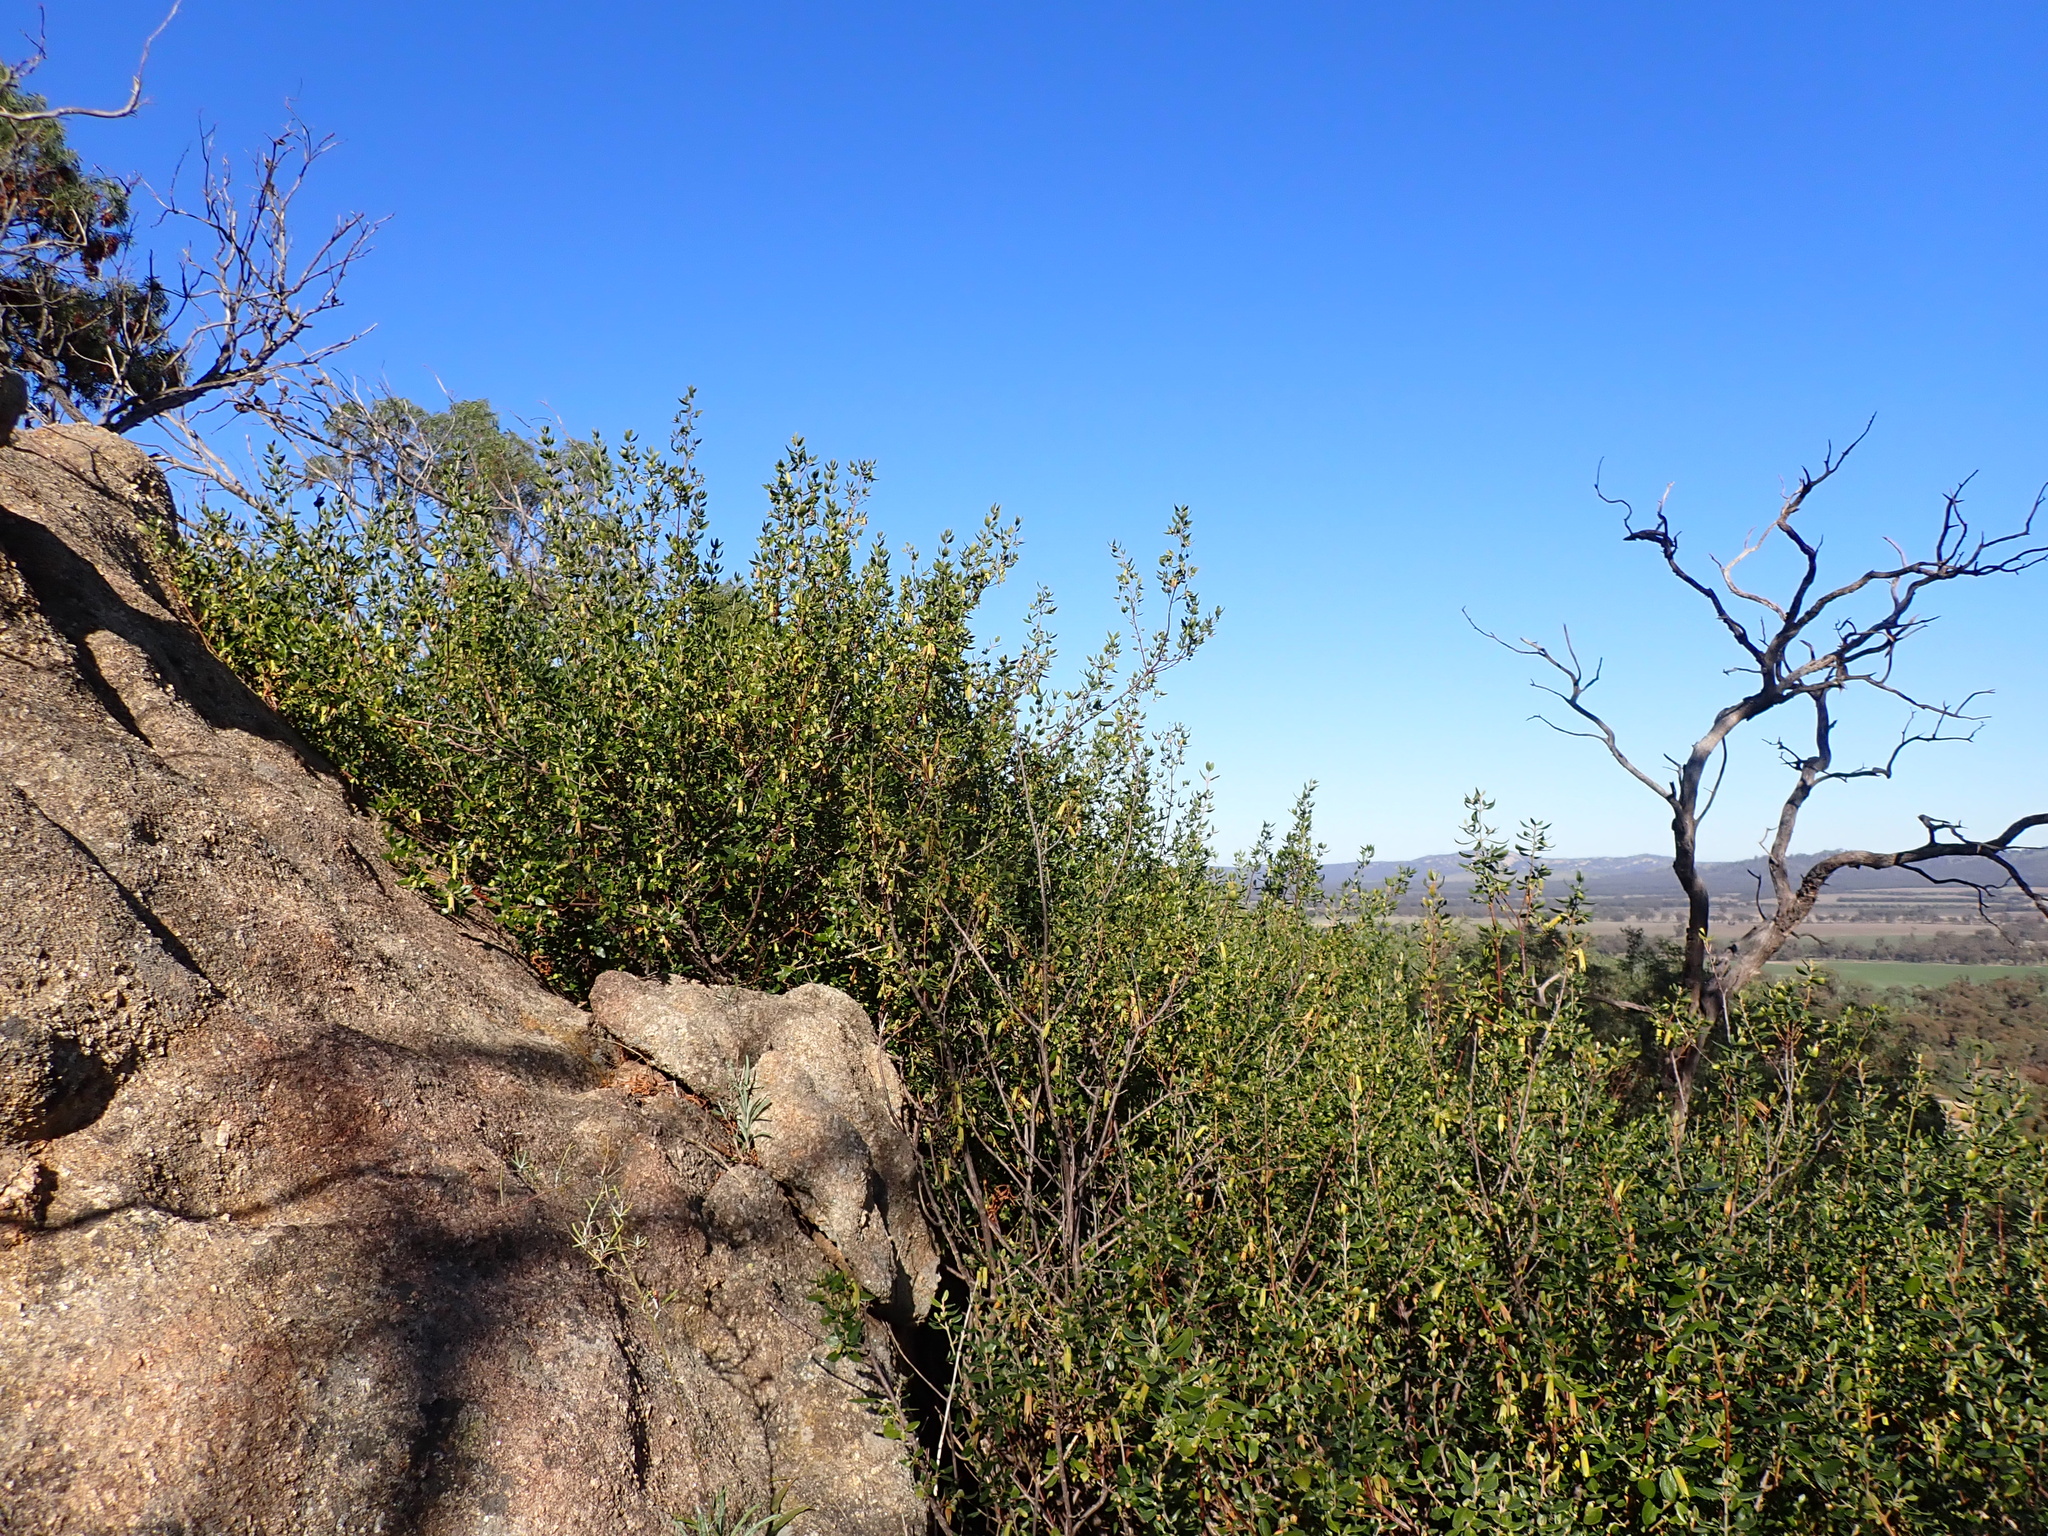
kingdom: Plantae
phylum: Tracheophyta
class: Magnoliopsida
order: Sapindales
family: Rutaceae
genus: Correa
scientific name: Correa glabra
